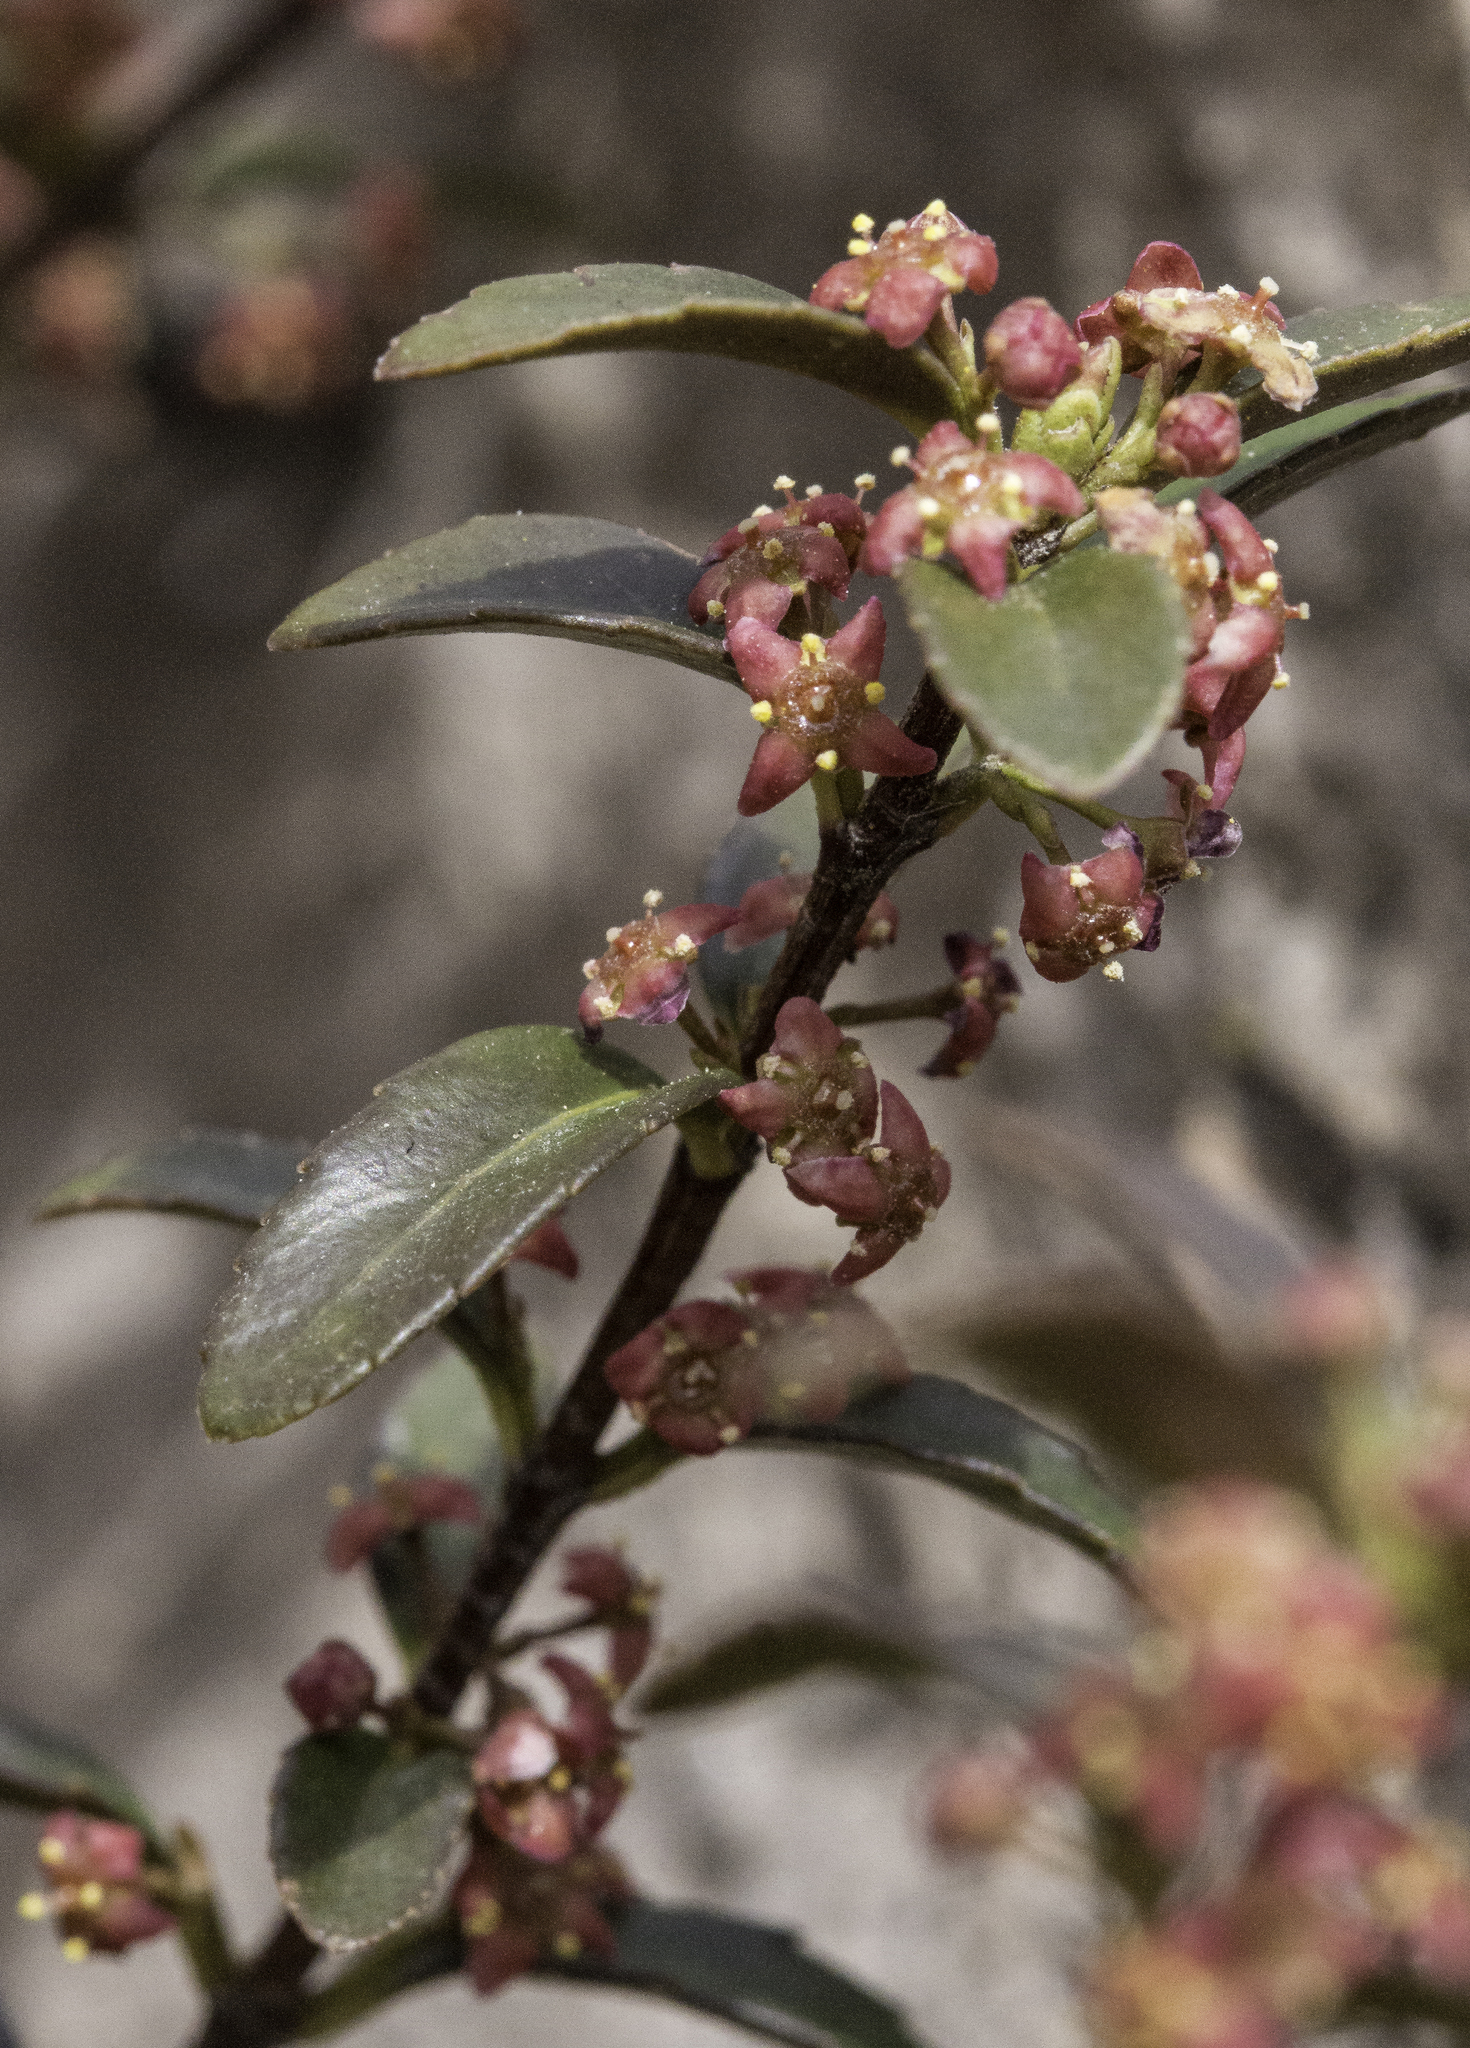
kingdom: Plantae
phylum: Tracheophyta
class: Magnoliopsida
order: Celastrales
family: Celastraceae
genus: Paxistima
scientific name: Paxistima myrsinites
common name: Mountain-lover
